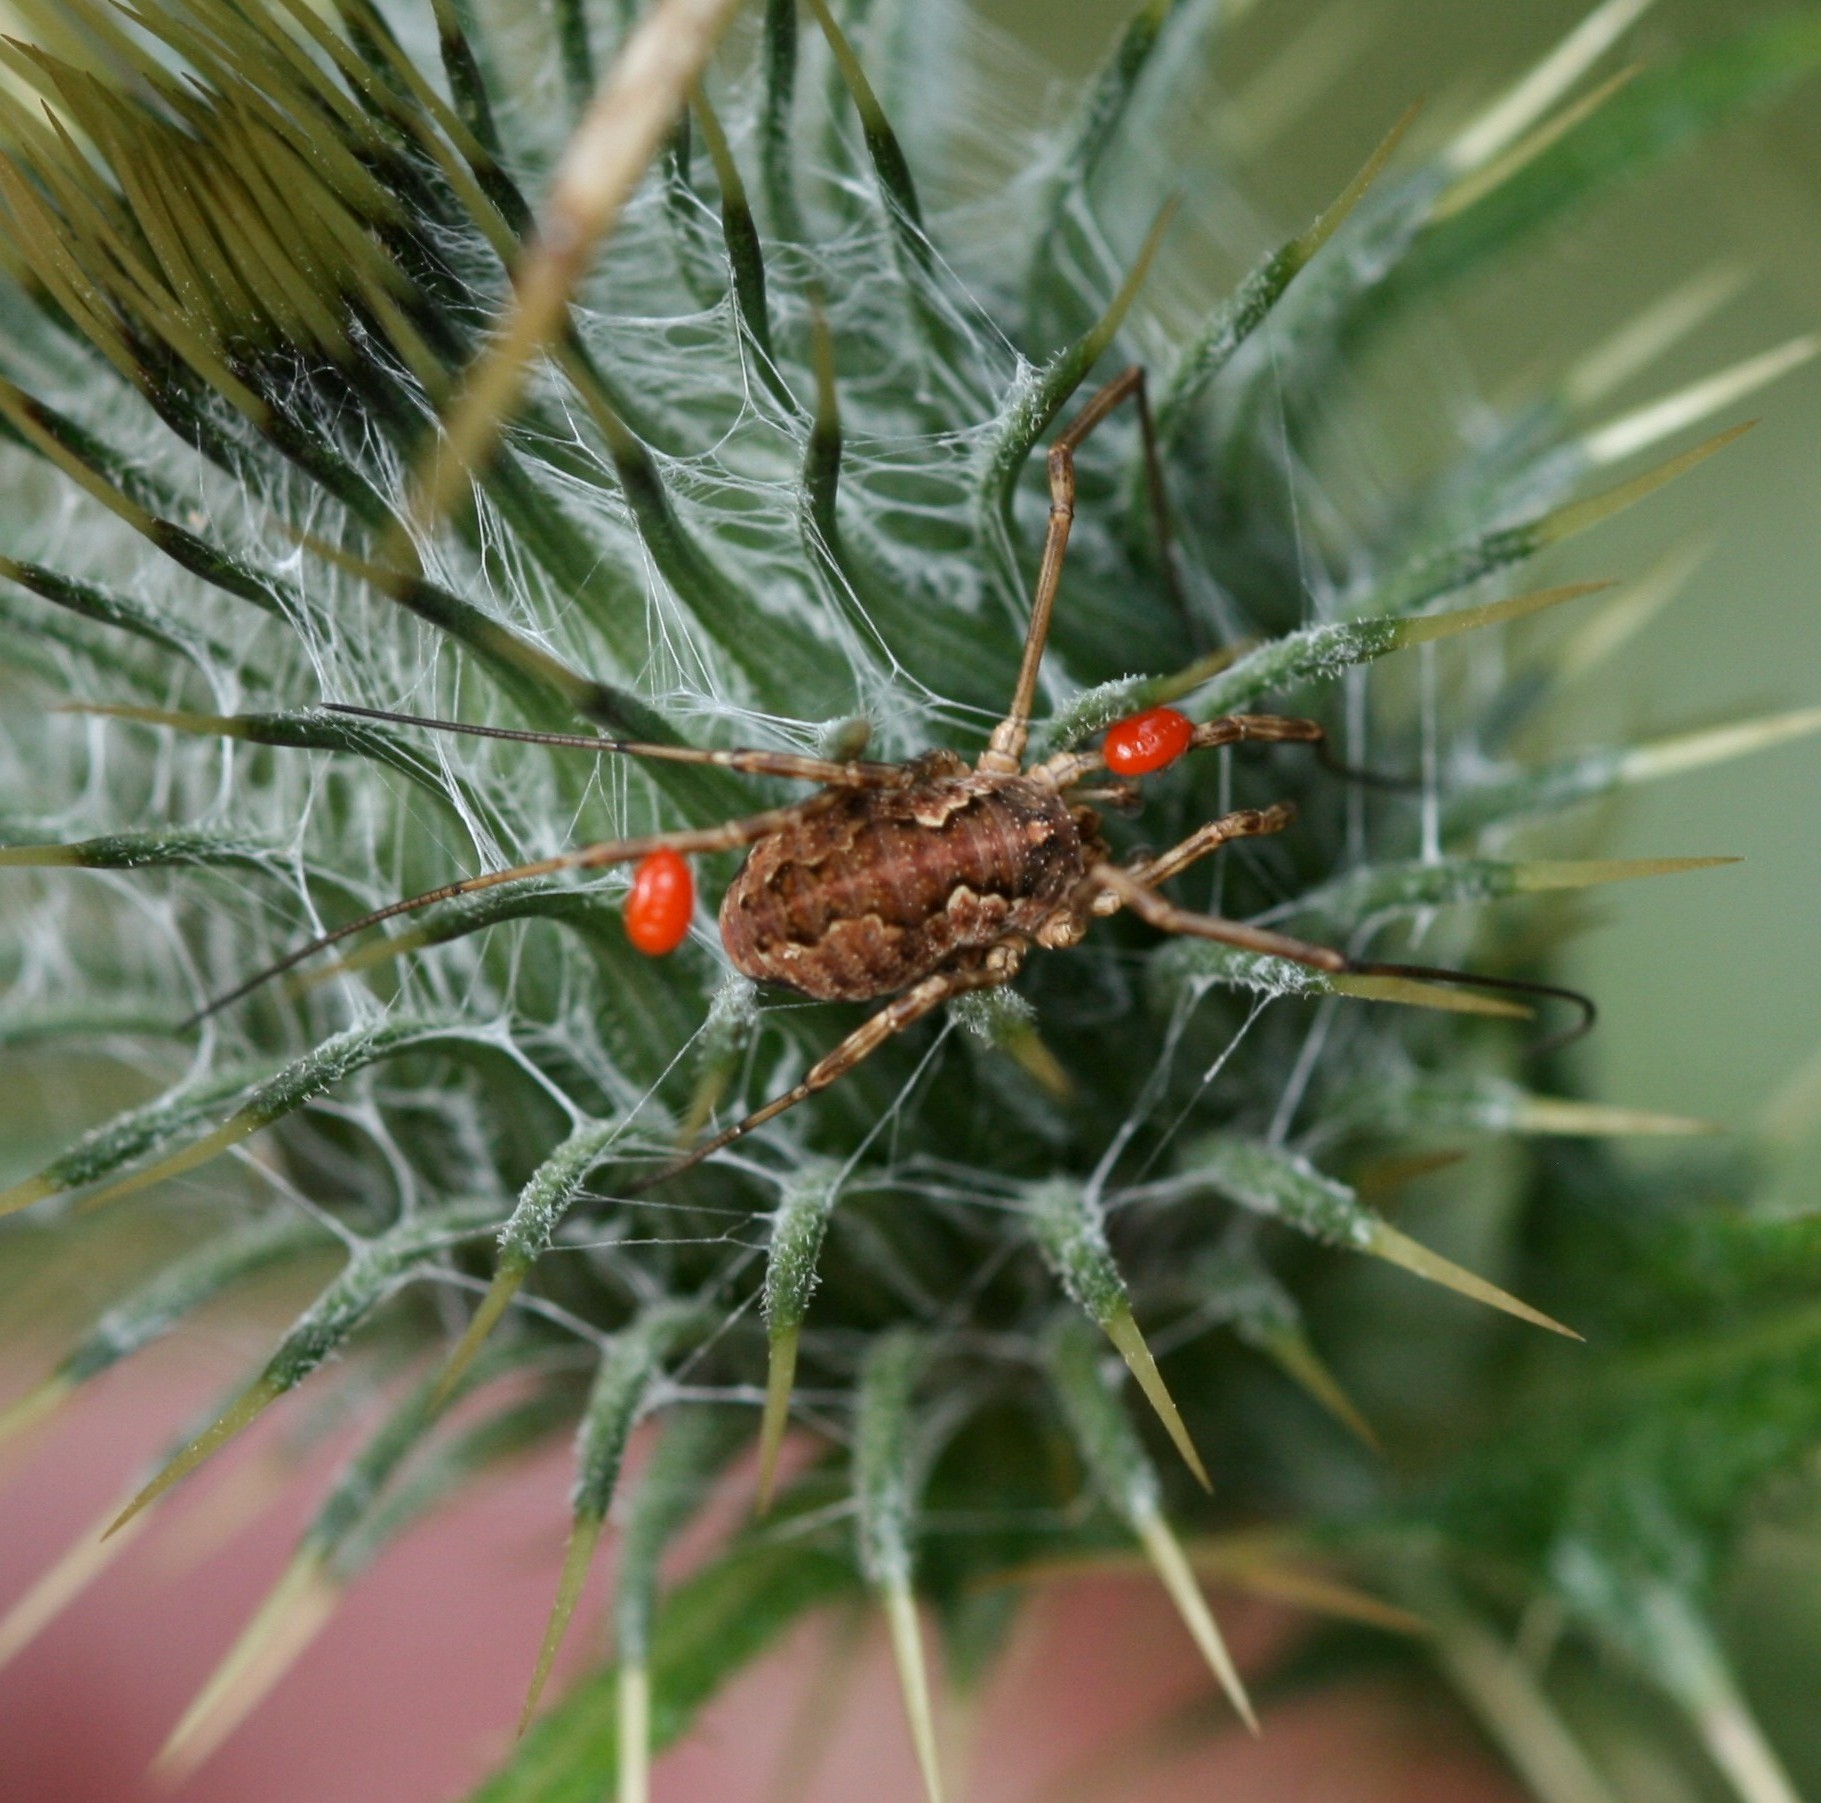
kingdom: Animalia
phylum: Arthropoda
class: Arachnida
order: Opiliones
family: Phalangiidae
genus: Mitopus
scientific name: Mitopus morio
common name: Saddleback harvestman
